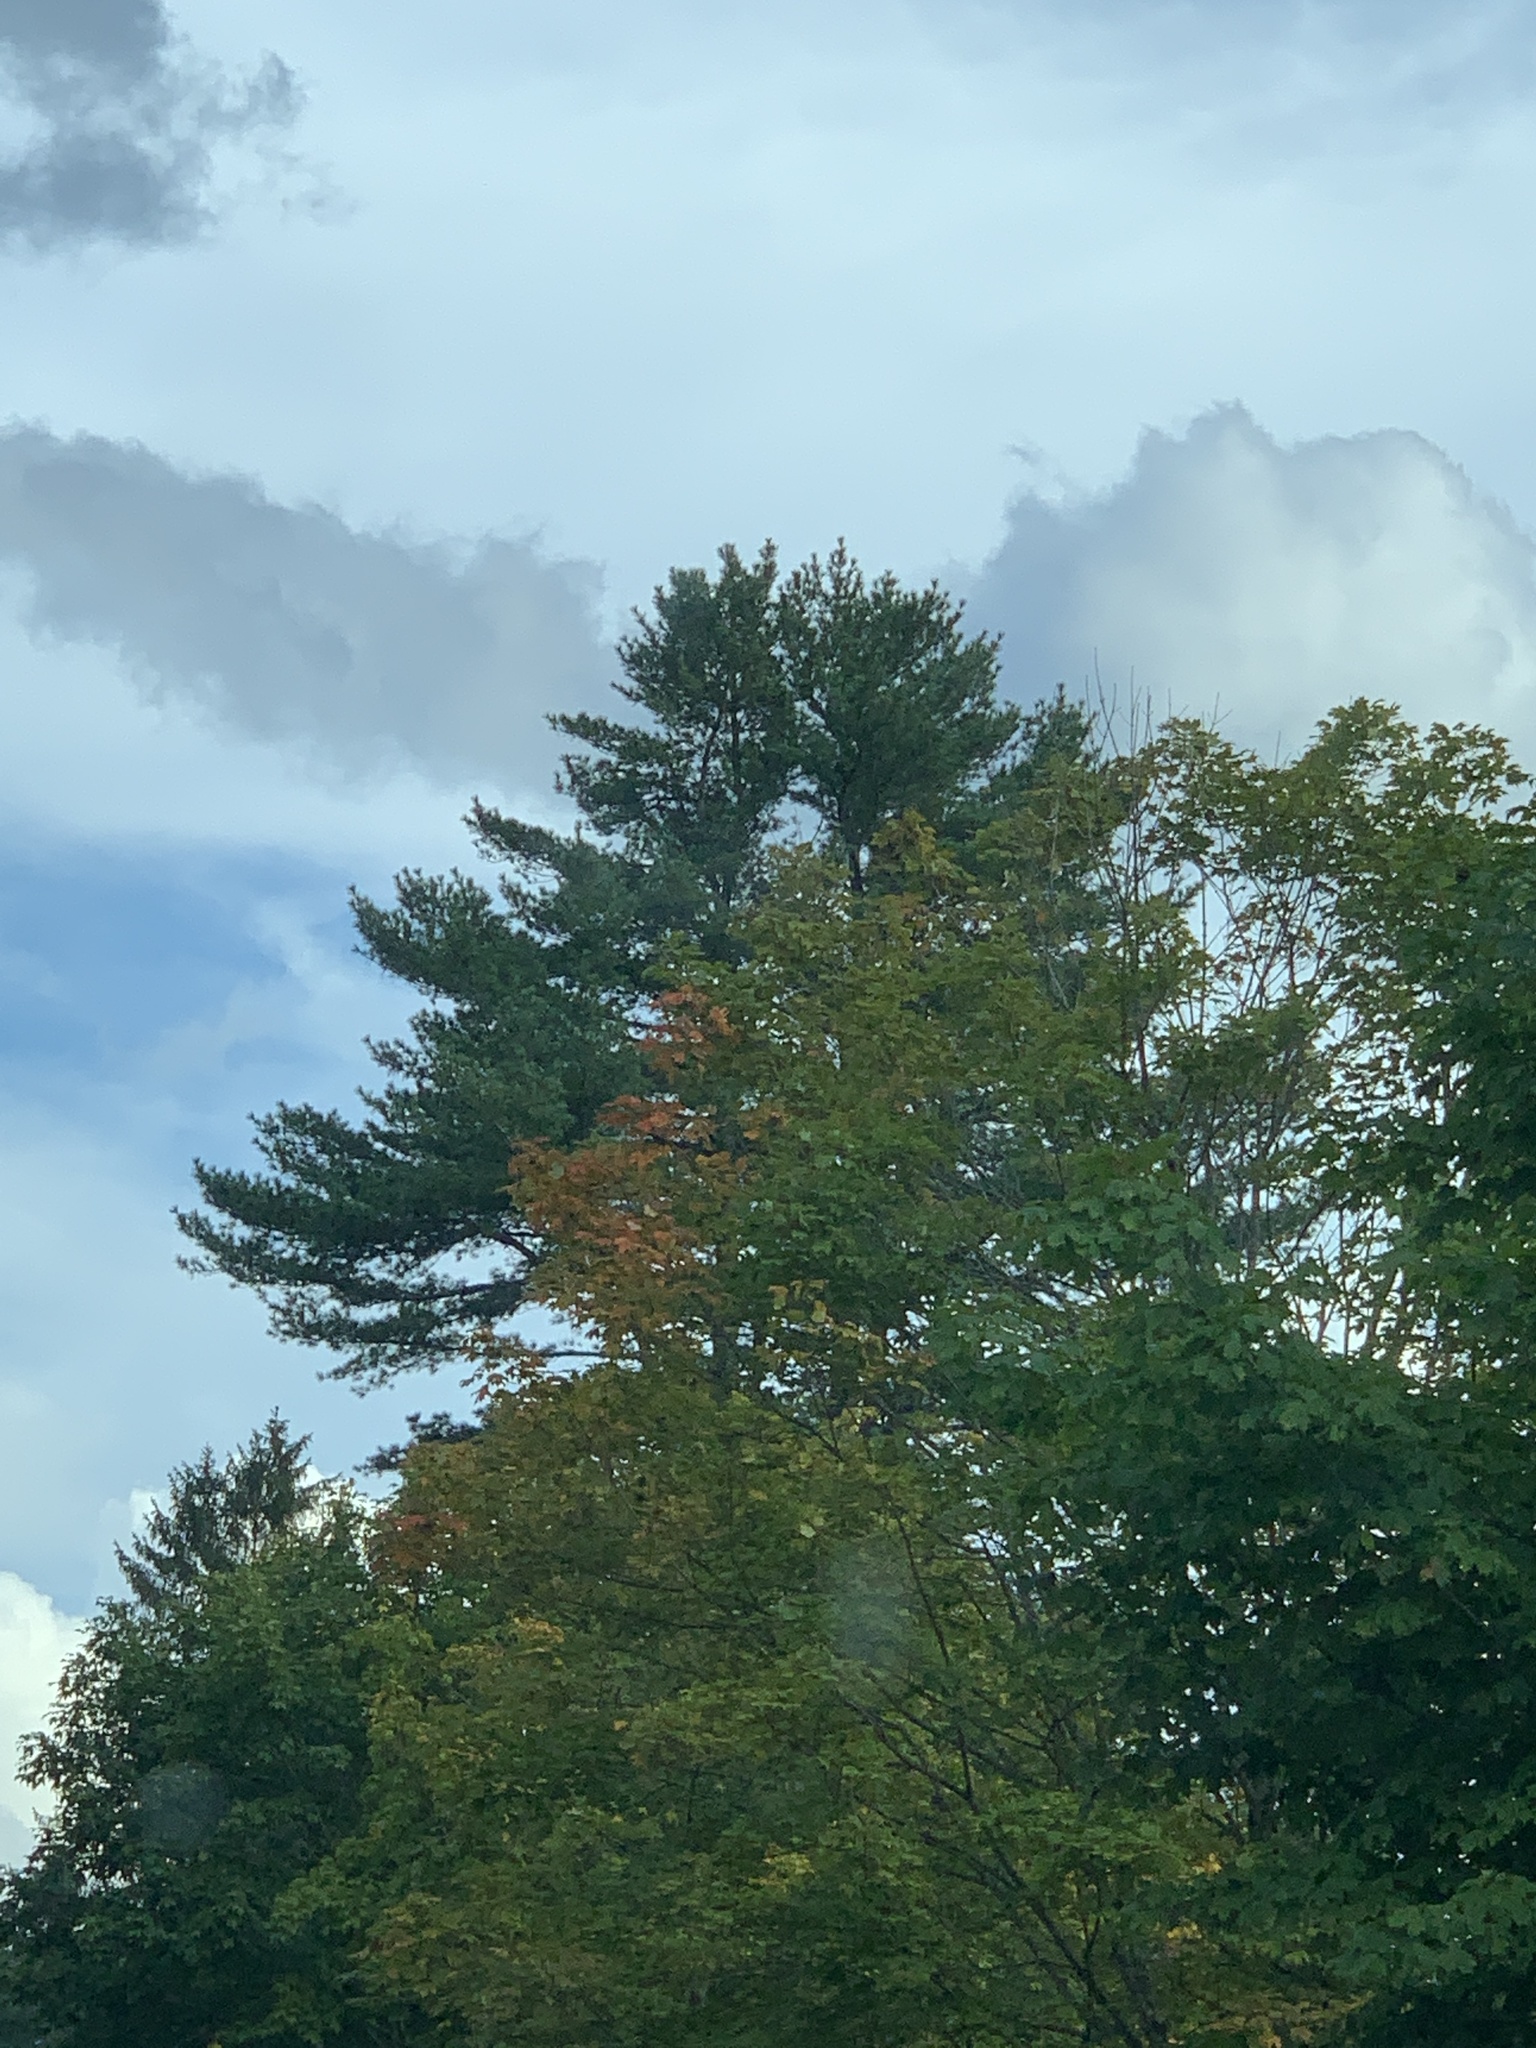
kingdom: Plantae
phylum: Tracheophyta
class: Pinopsida
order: Pinales
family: Pinaceae
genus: Pinus
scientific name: Pinus strobus
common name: Weymouth pine
